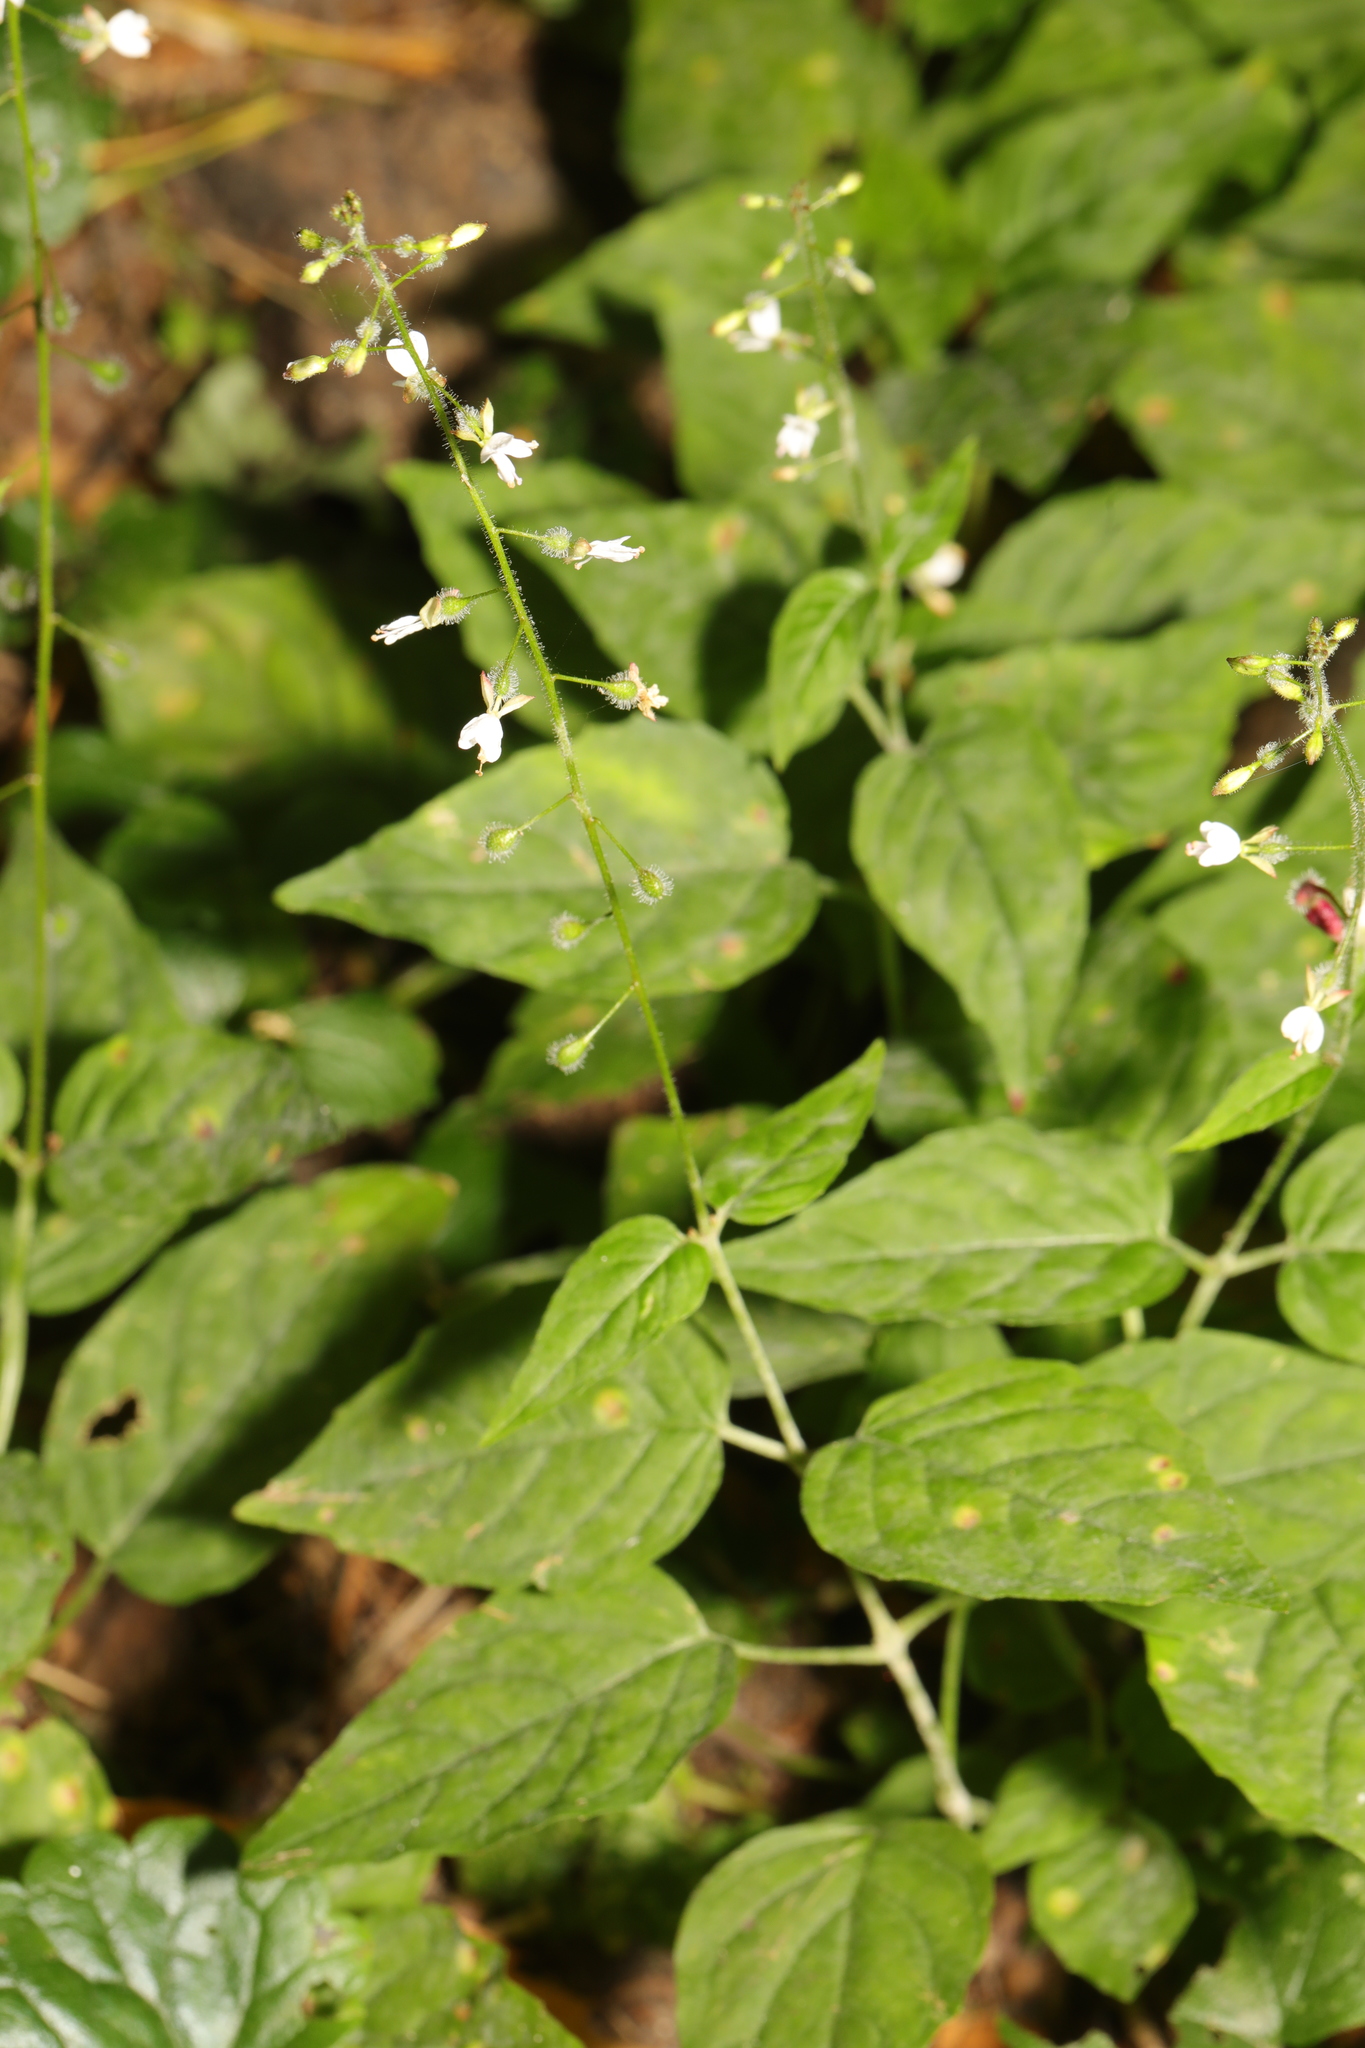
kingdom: Plantae
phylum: Tracheophyta
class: Magnoliopsida
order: Myrtales
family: Onagraceae
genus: Circaea
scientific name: Circaea lutetiana
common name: Enchanter's-nightshade
